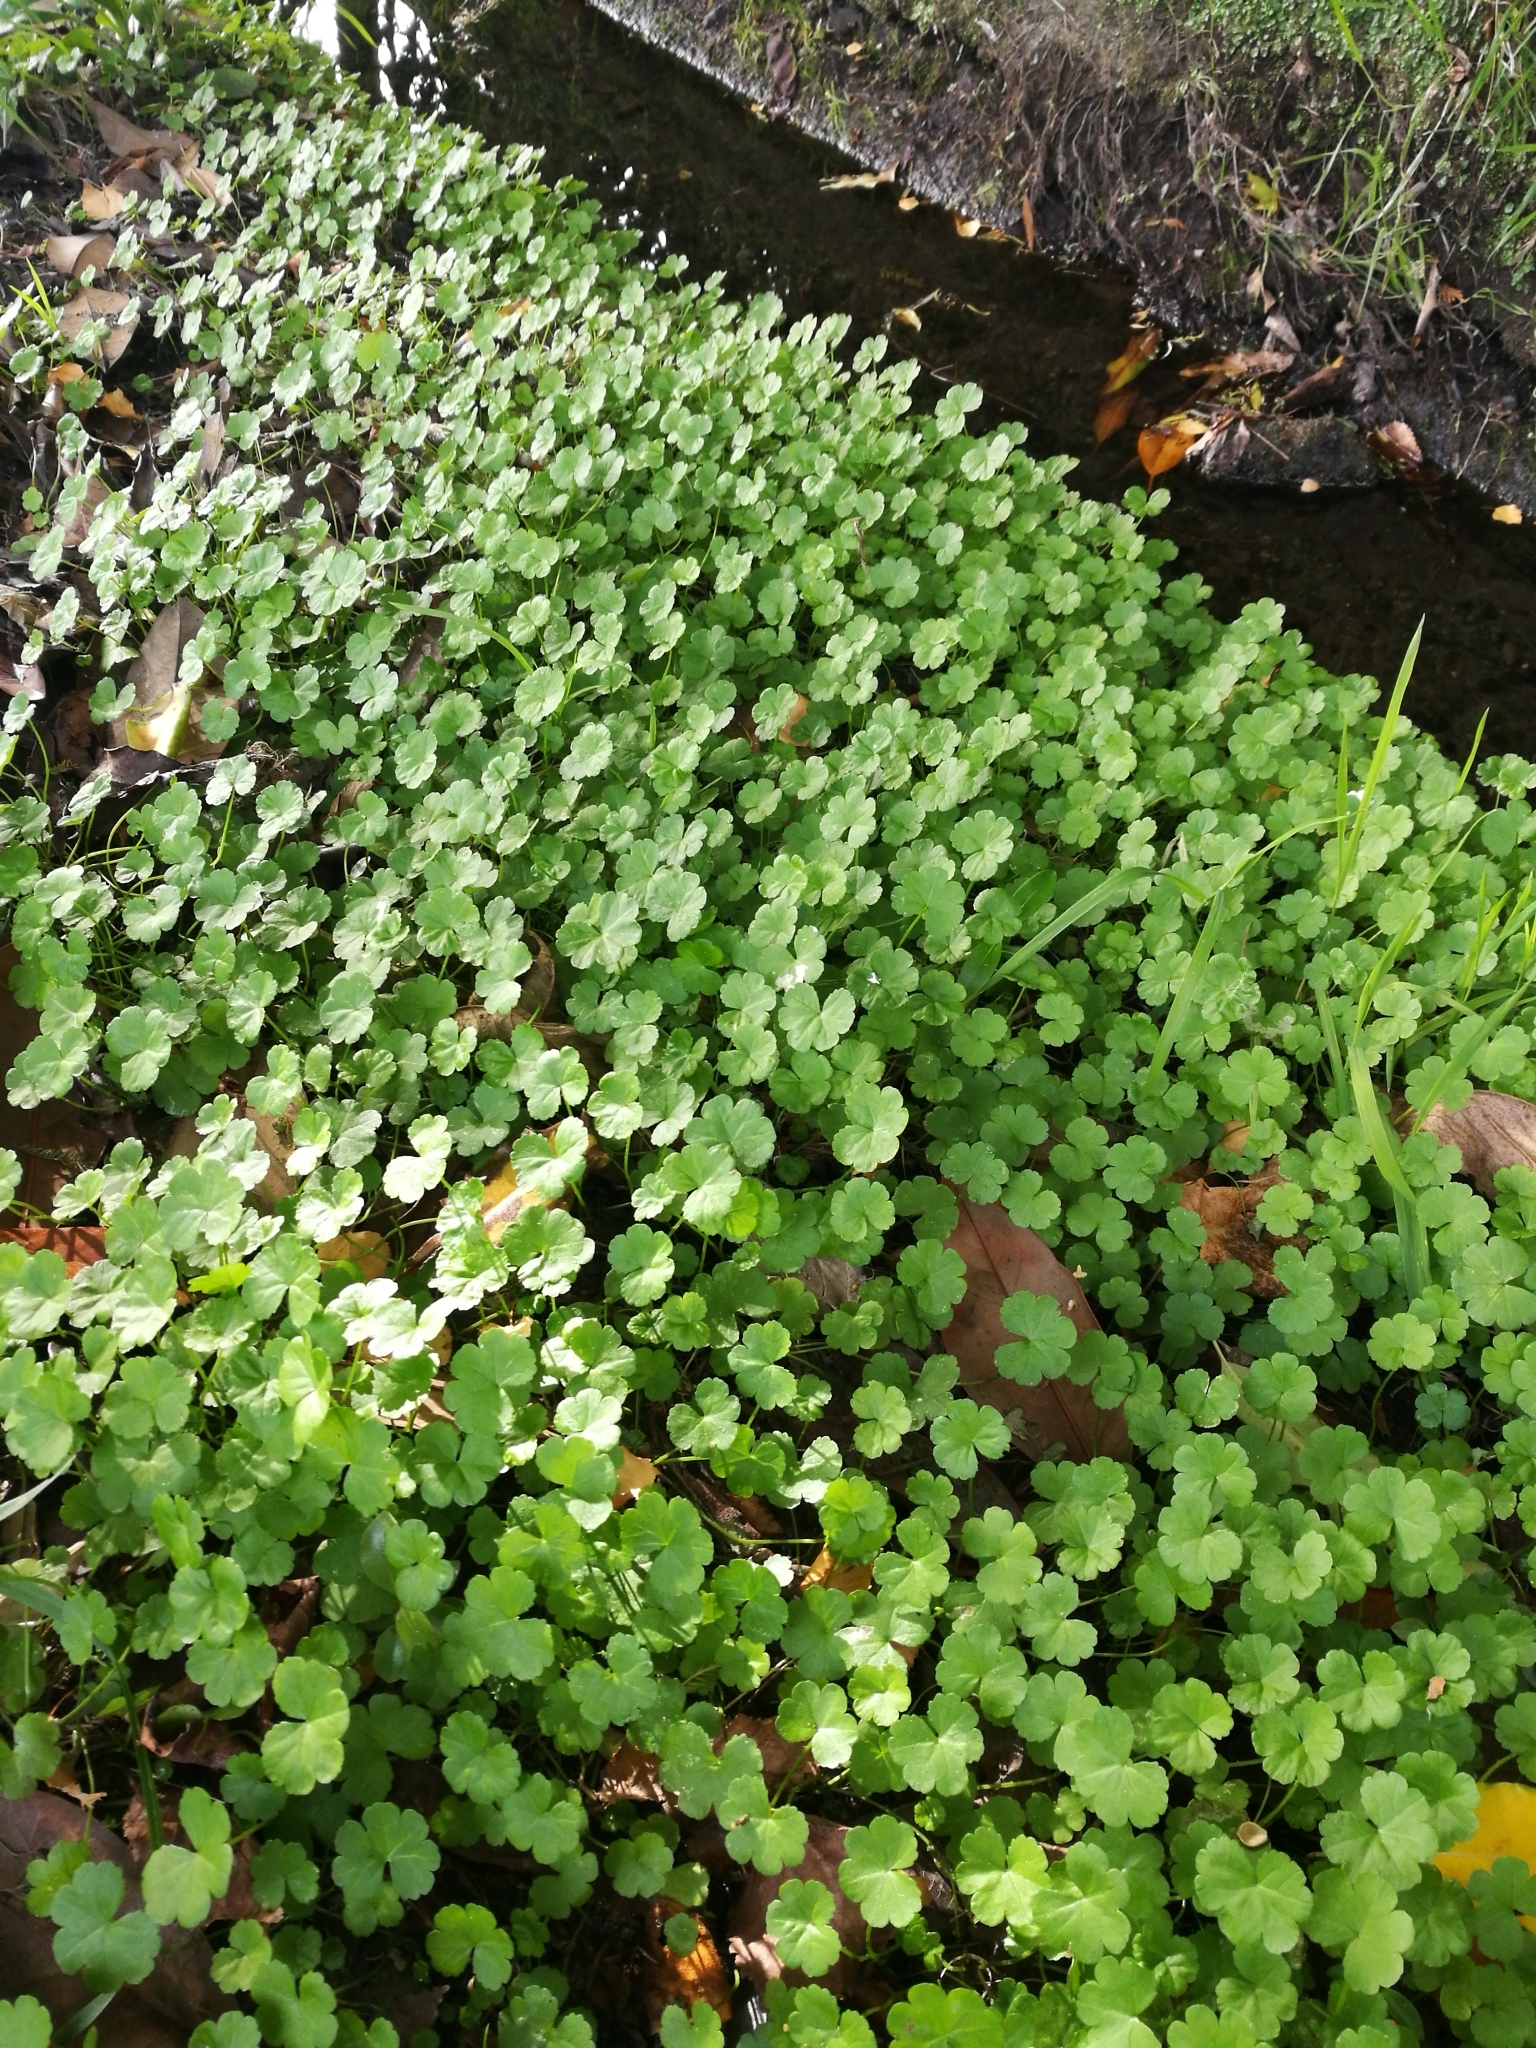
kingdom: Plantae
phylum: Tracheophyta
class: Magnoliopsida
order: Apiales
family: Araliaceae
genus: Hydrocotyle
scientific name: Hydrocotyle heteromeria
